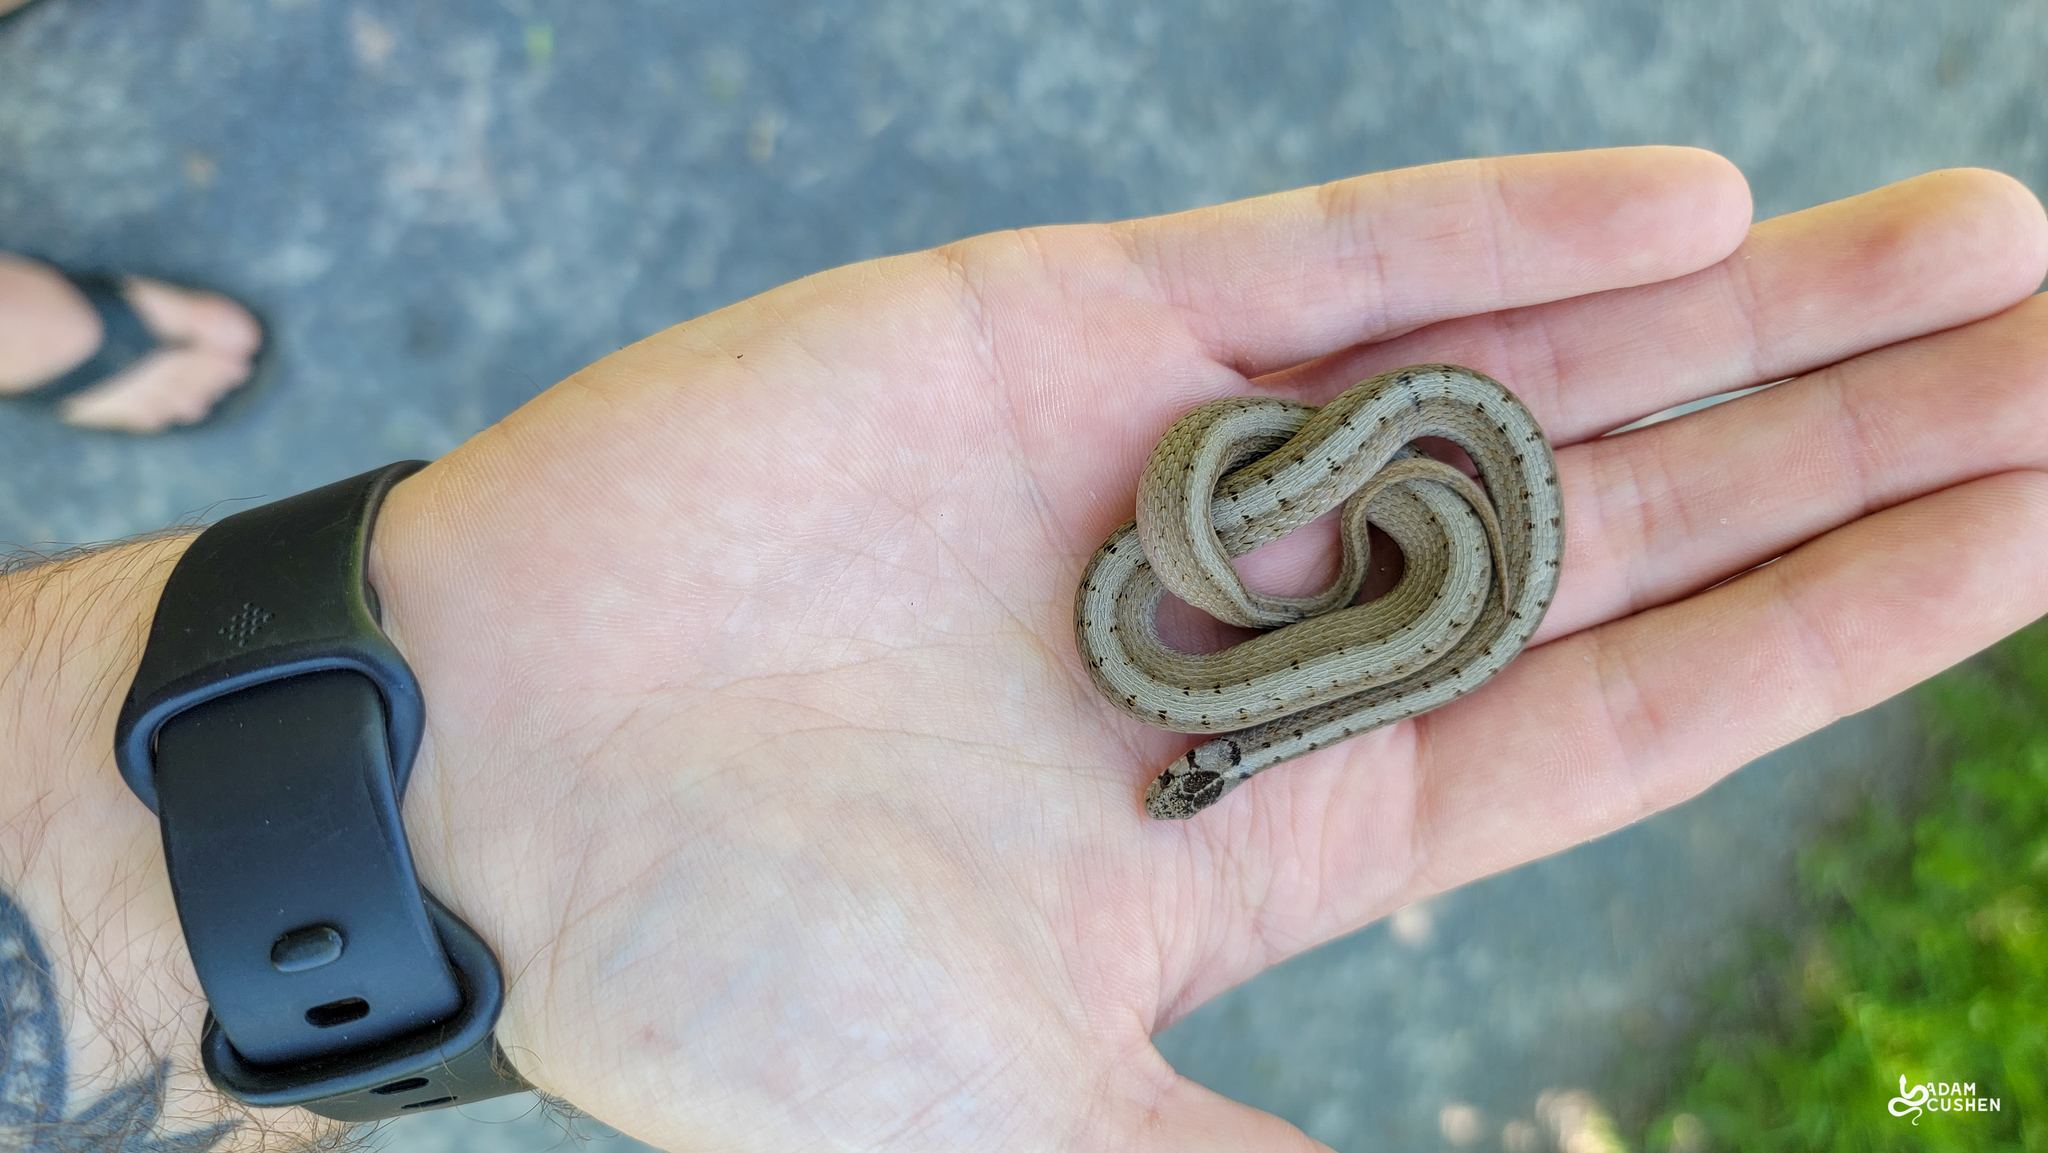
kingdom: Animalia
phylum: Chordata
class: Squamata
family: Colubridae
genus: Storeria
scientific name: Storeria dekayi
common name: (dekay’s) brown snake
